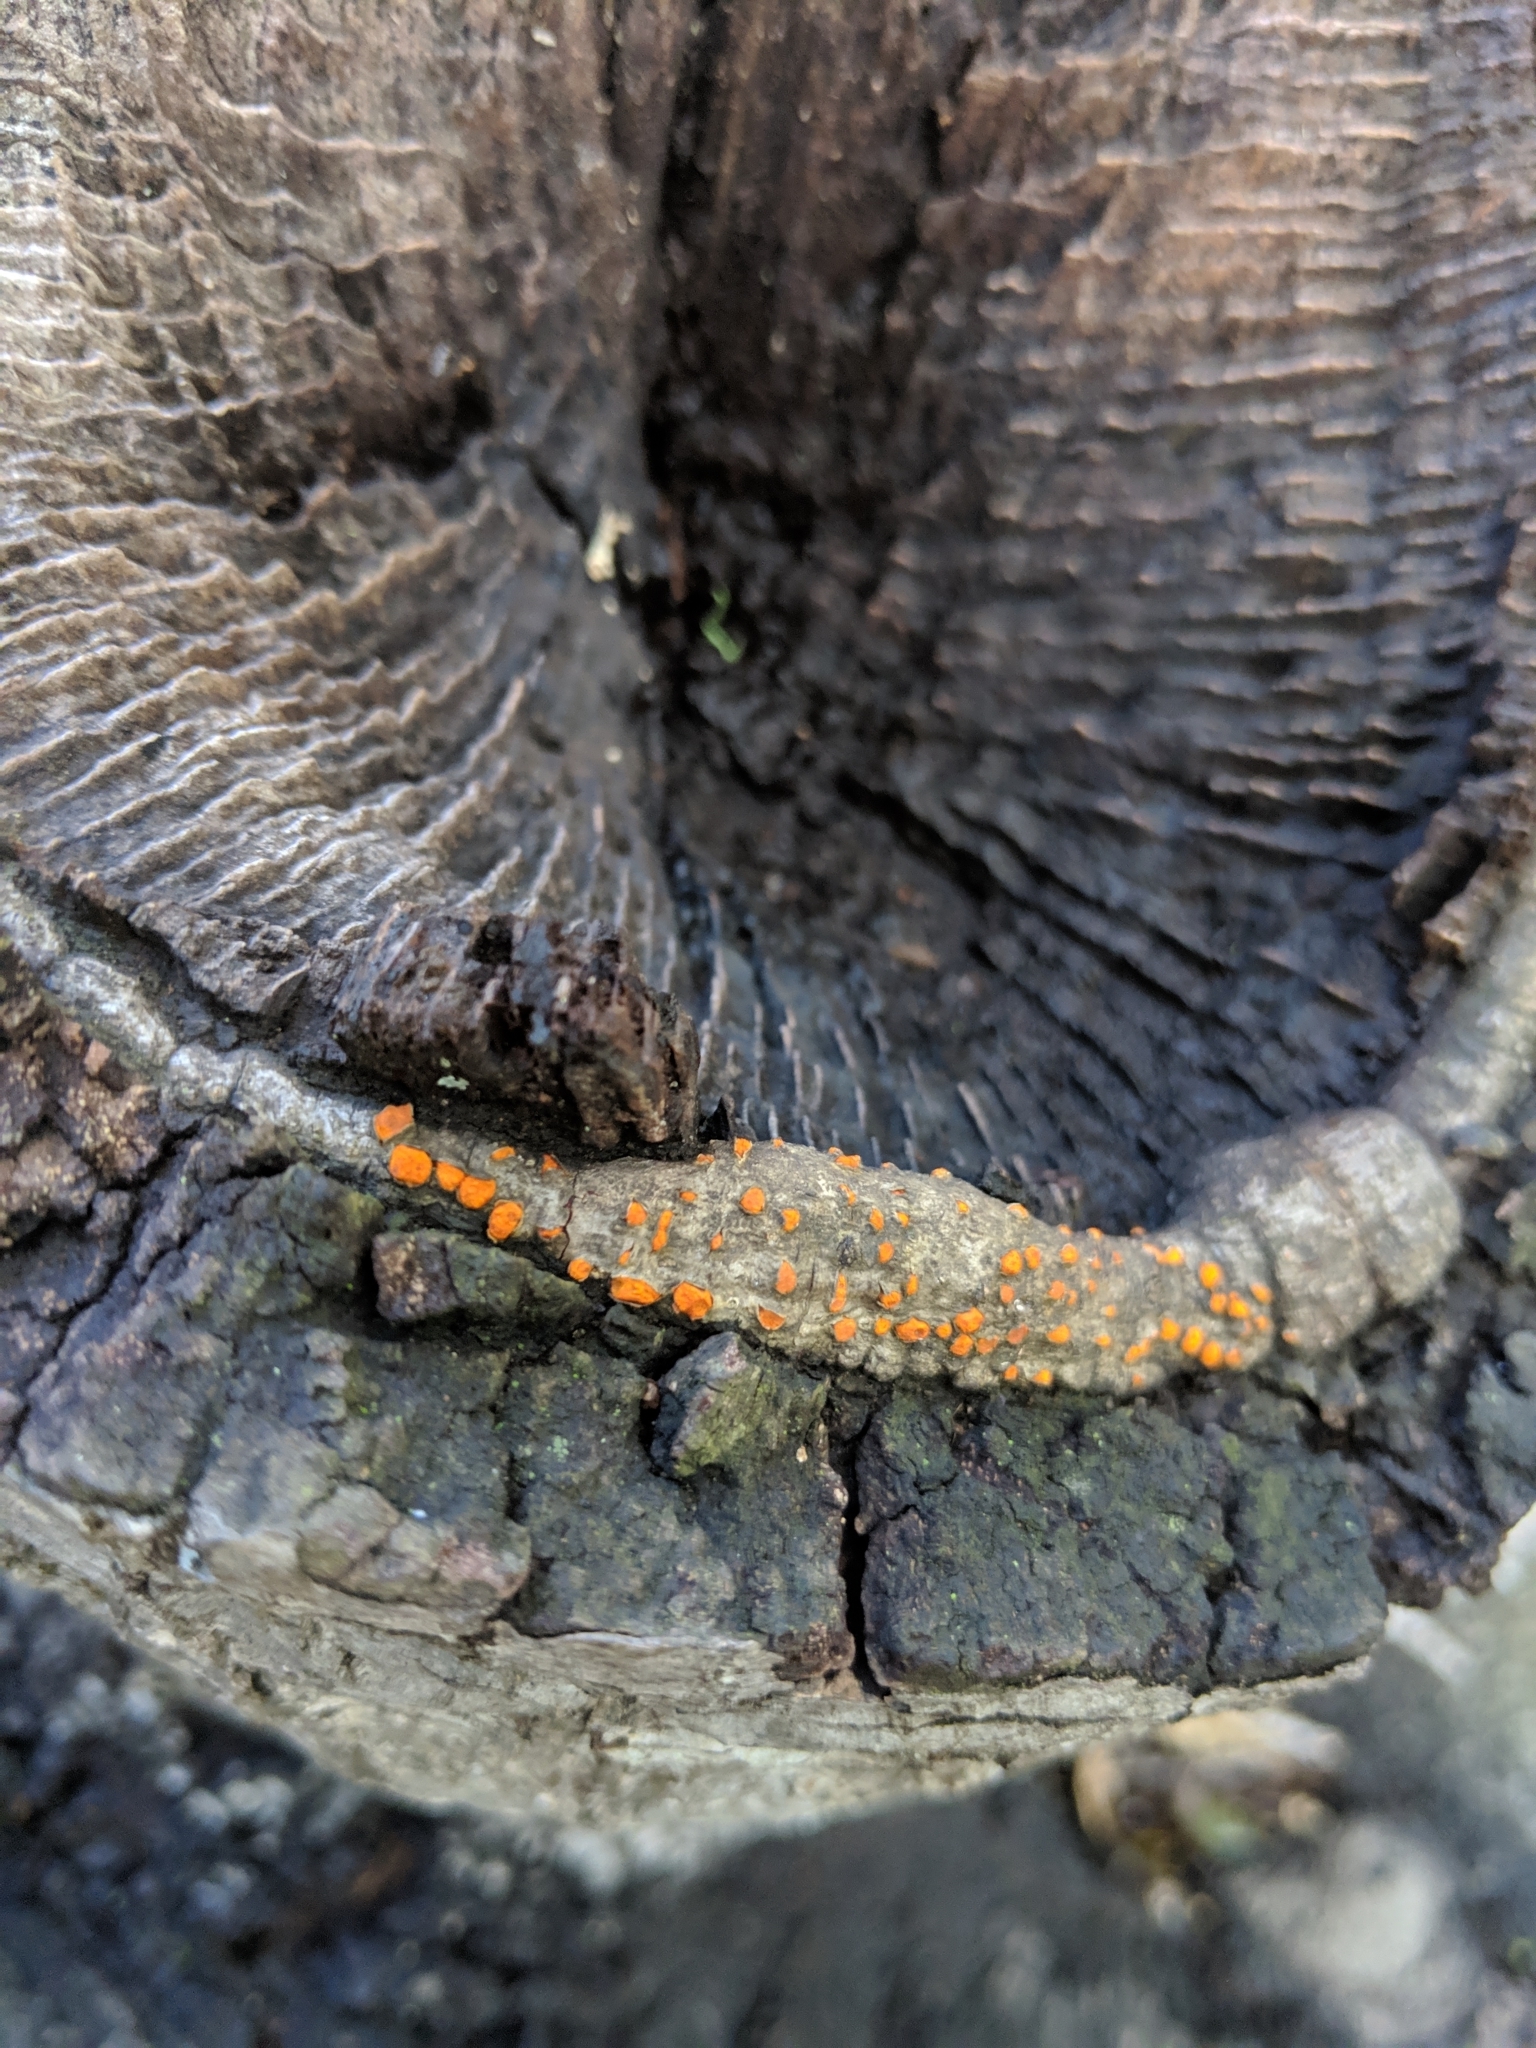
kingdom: Fungi
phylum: Ascomycota
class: Sordariomycetes
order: Hypocreales
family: Nectriaceae
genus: Nectria
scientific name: Nectria cinnabarina
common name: Coral spot
